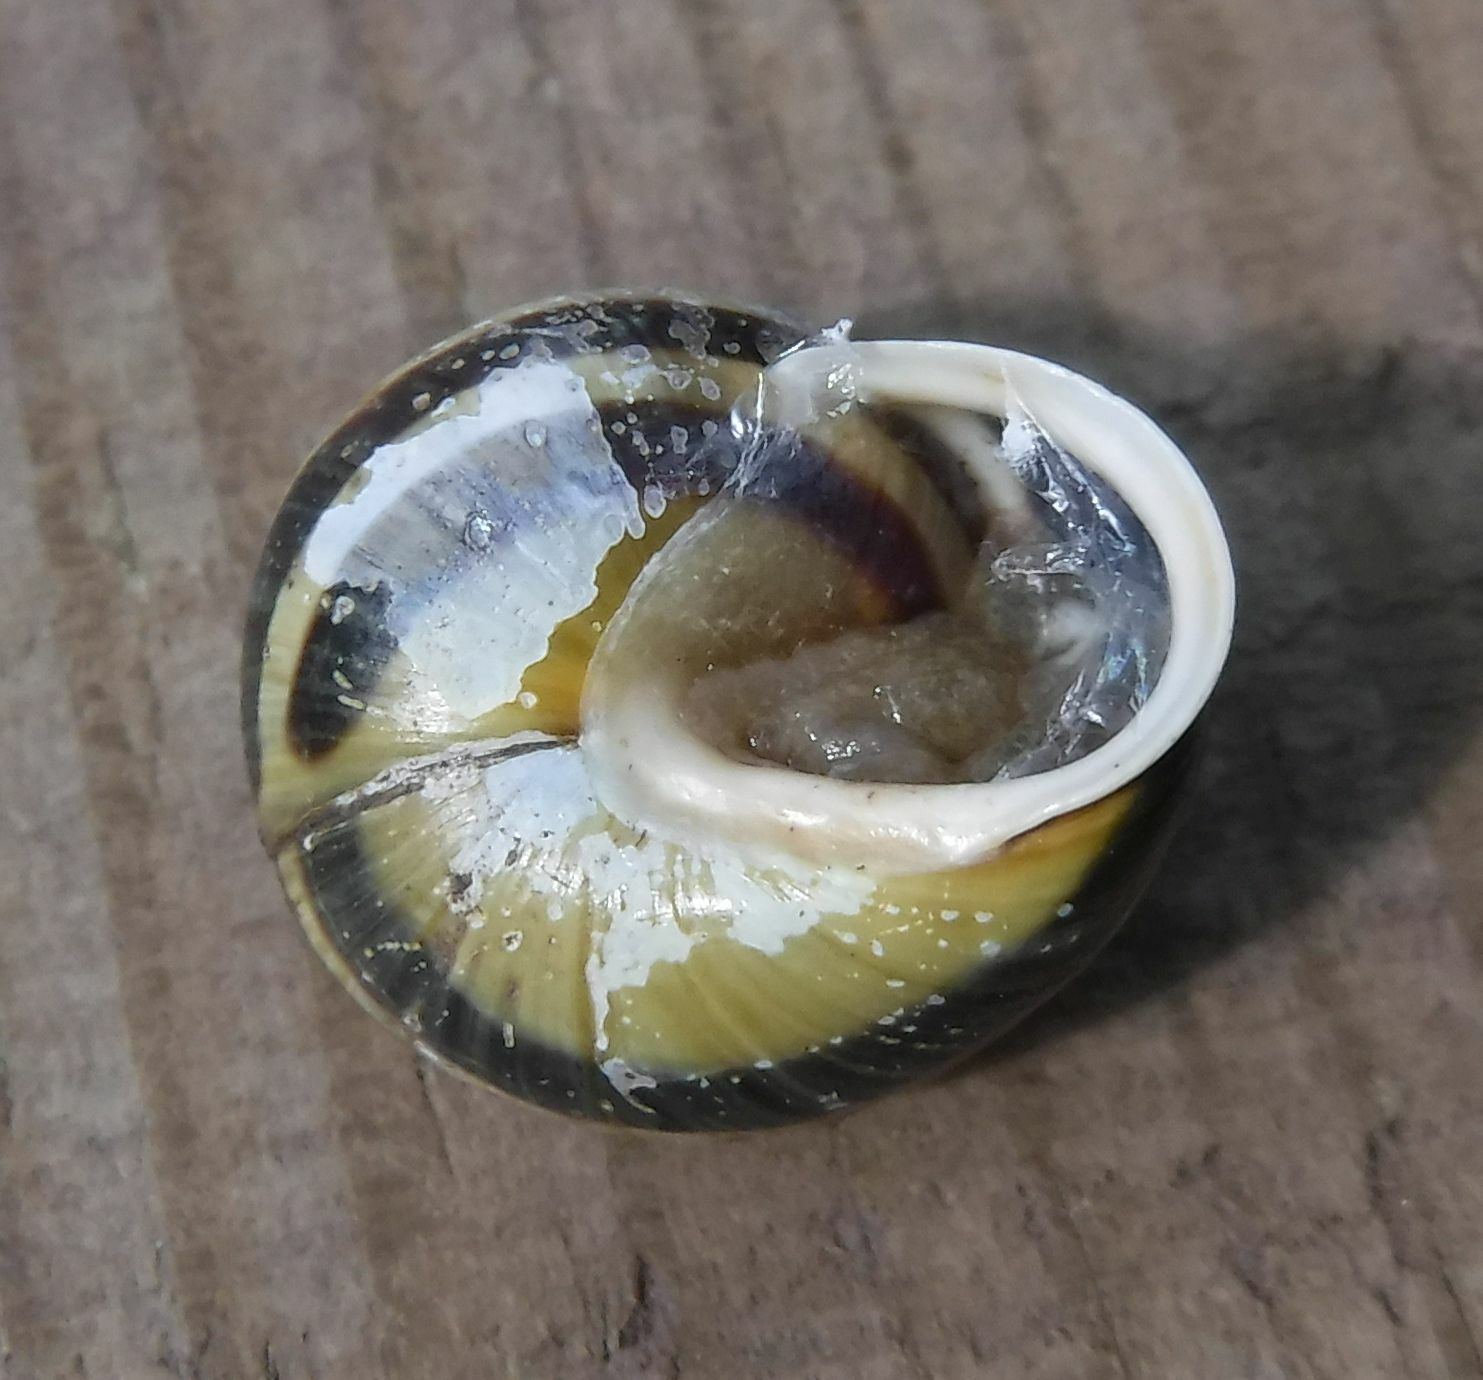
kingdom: Animalia
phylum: Mollusca
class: Gastropoda
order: Stylommatophora
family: Helicidae
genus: Cepaea
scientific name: Cepaea hortensis
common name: White-lip gardensnail
